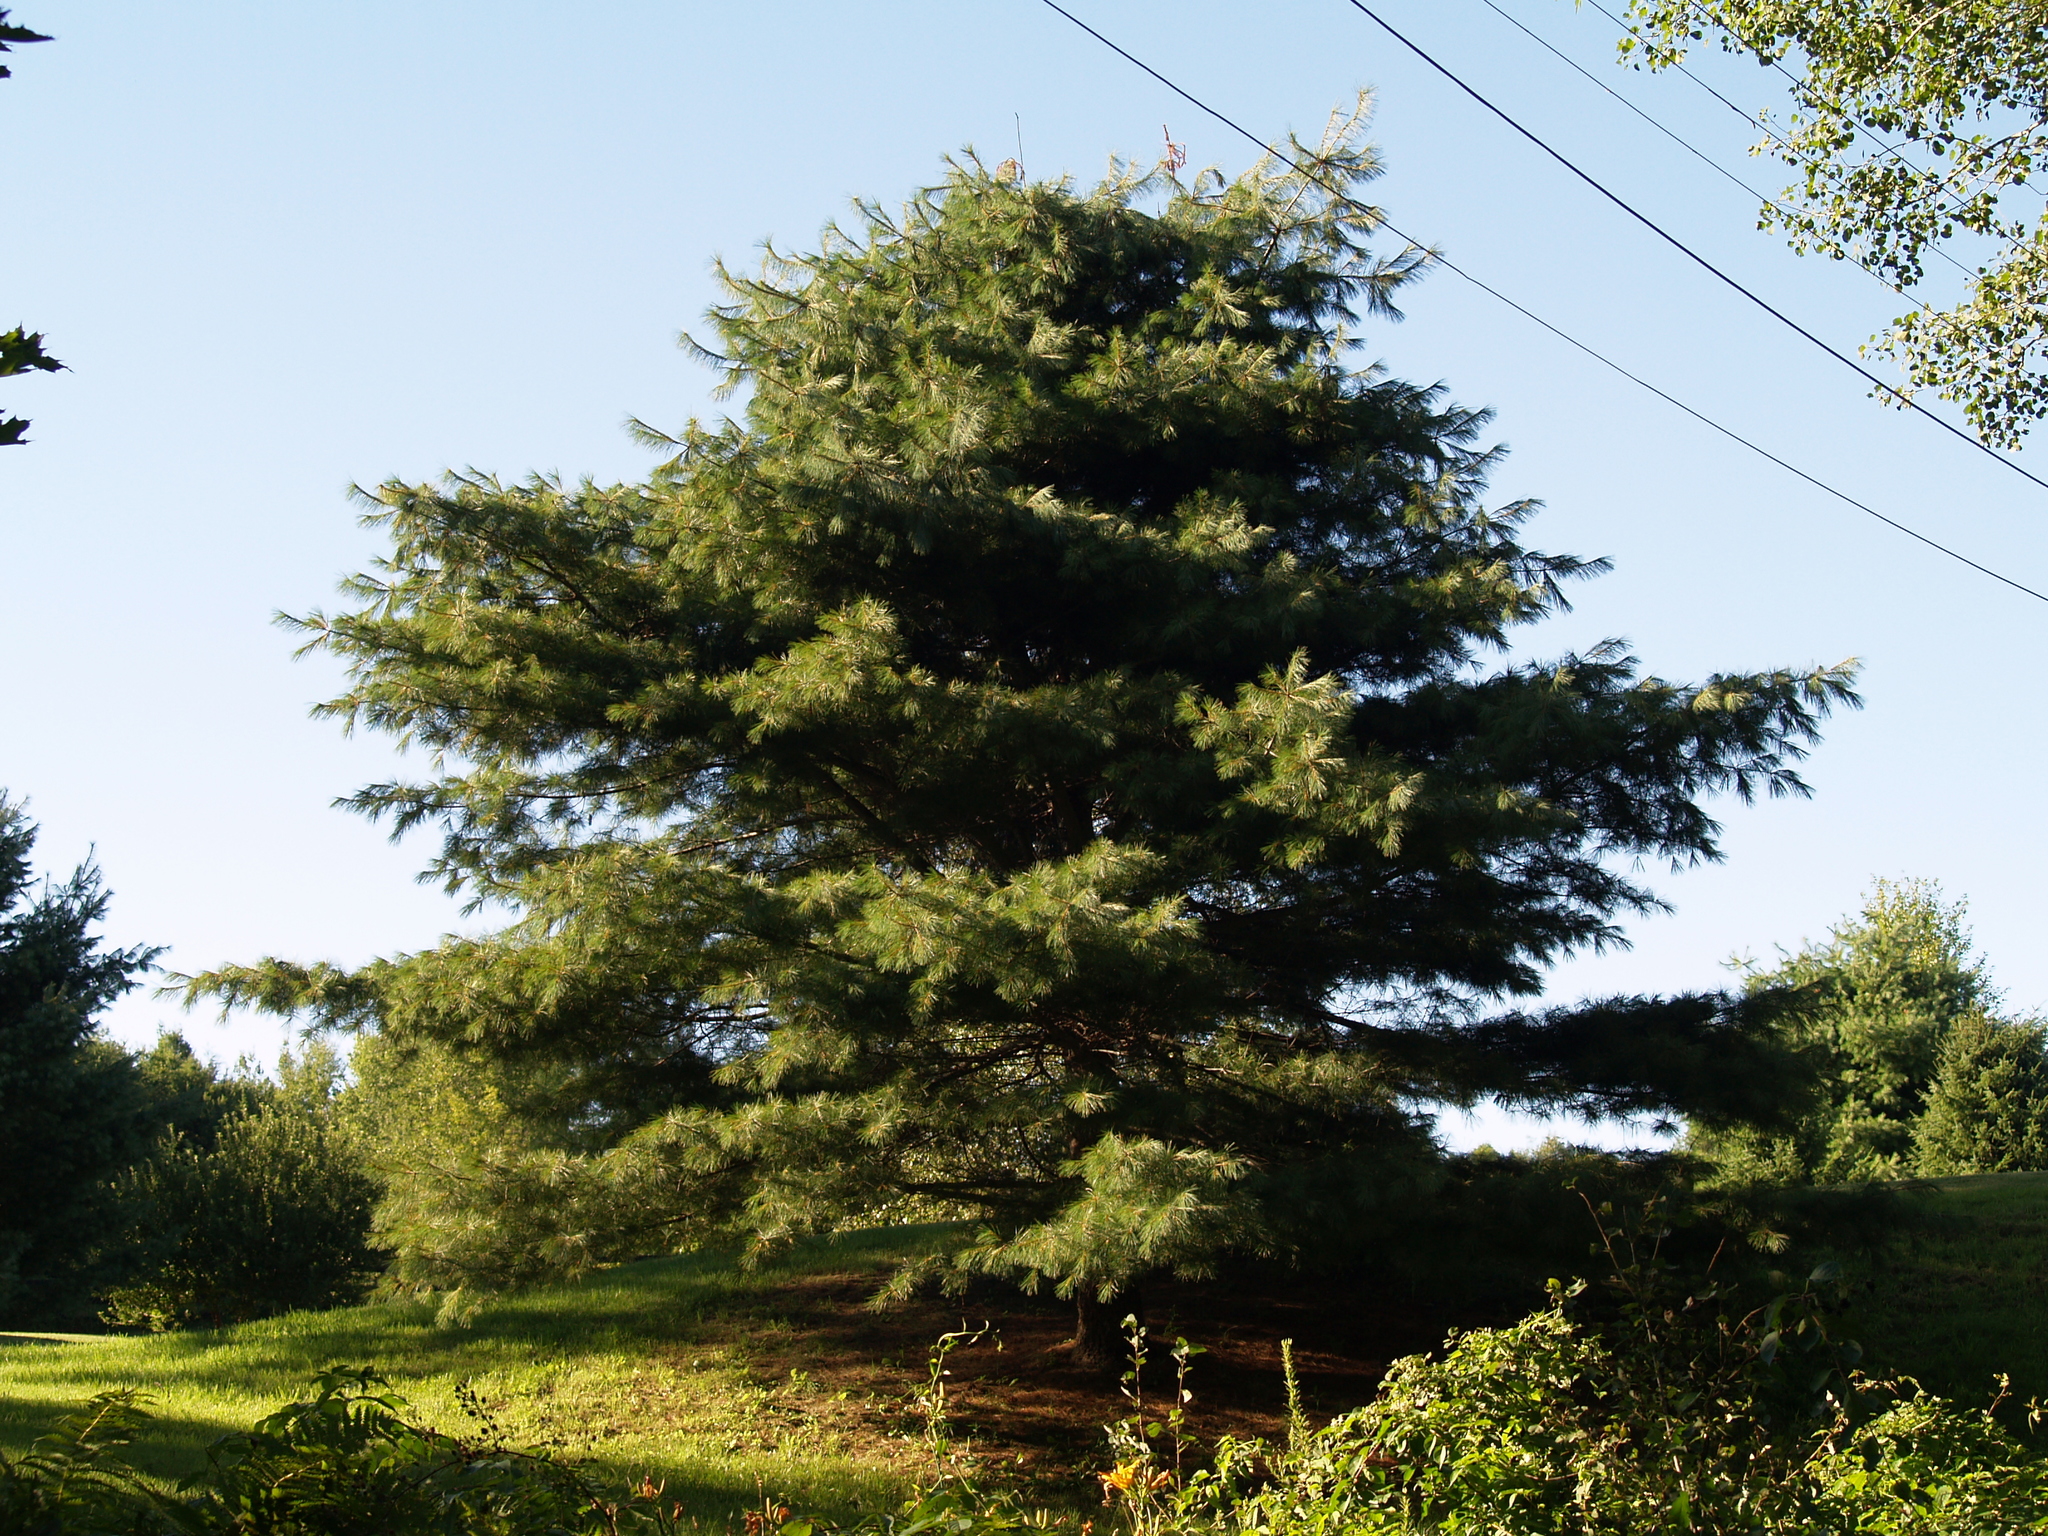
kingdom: Plantae
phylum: Tracheophyta
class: Pinopsida
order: Pinales
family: Pinaceae
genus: Pinus
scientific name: Pinus strobus
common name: Weymouth pine
